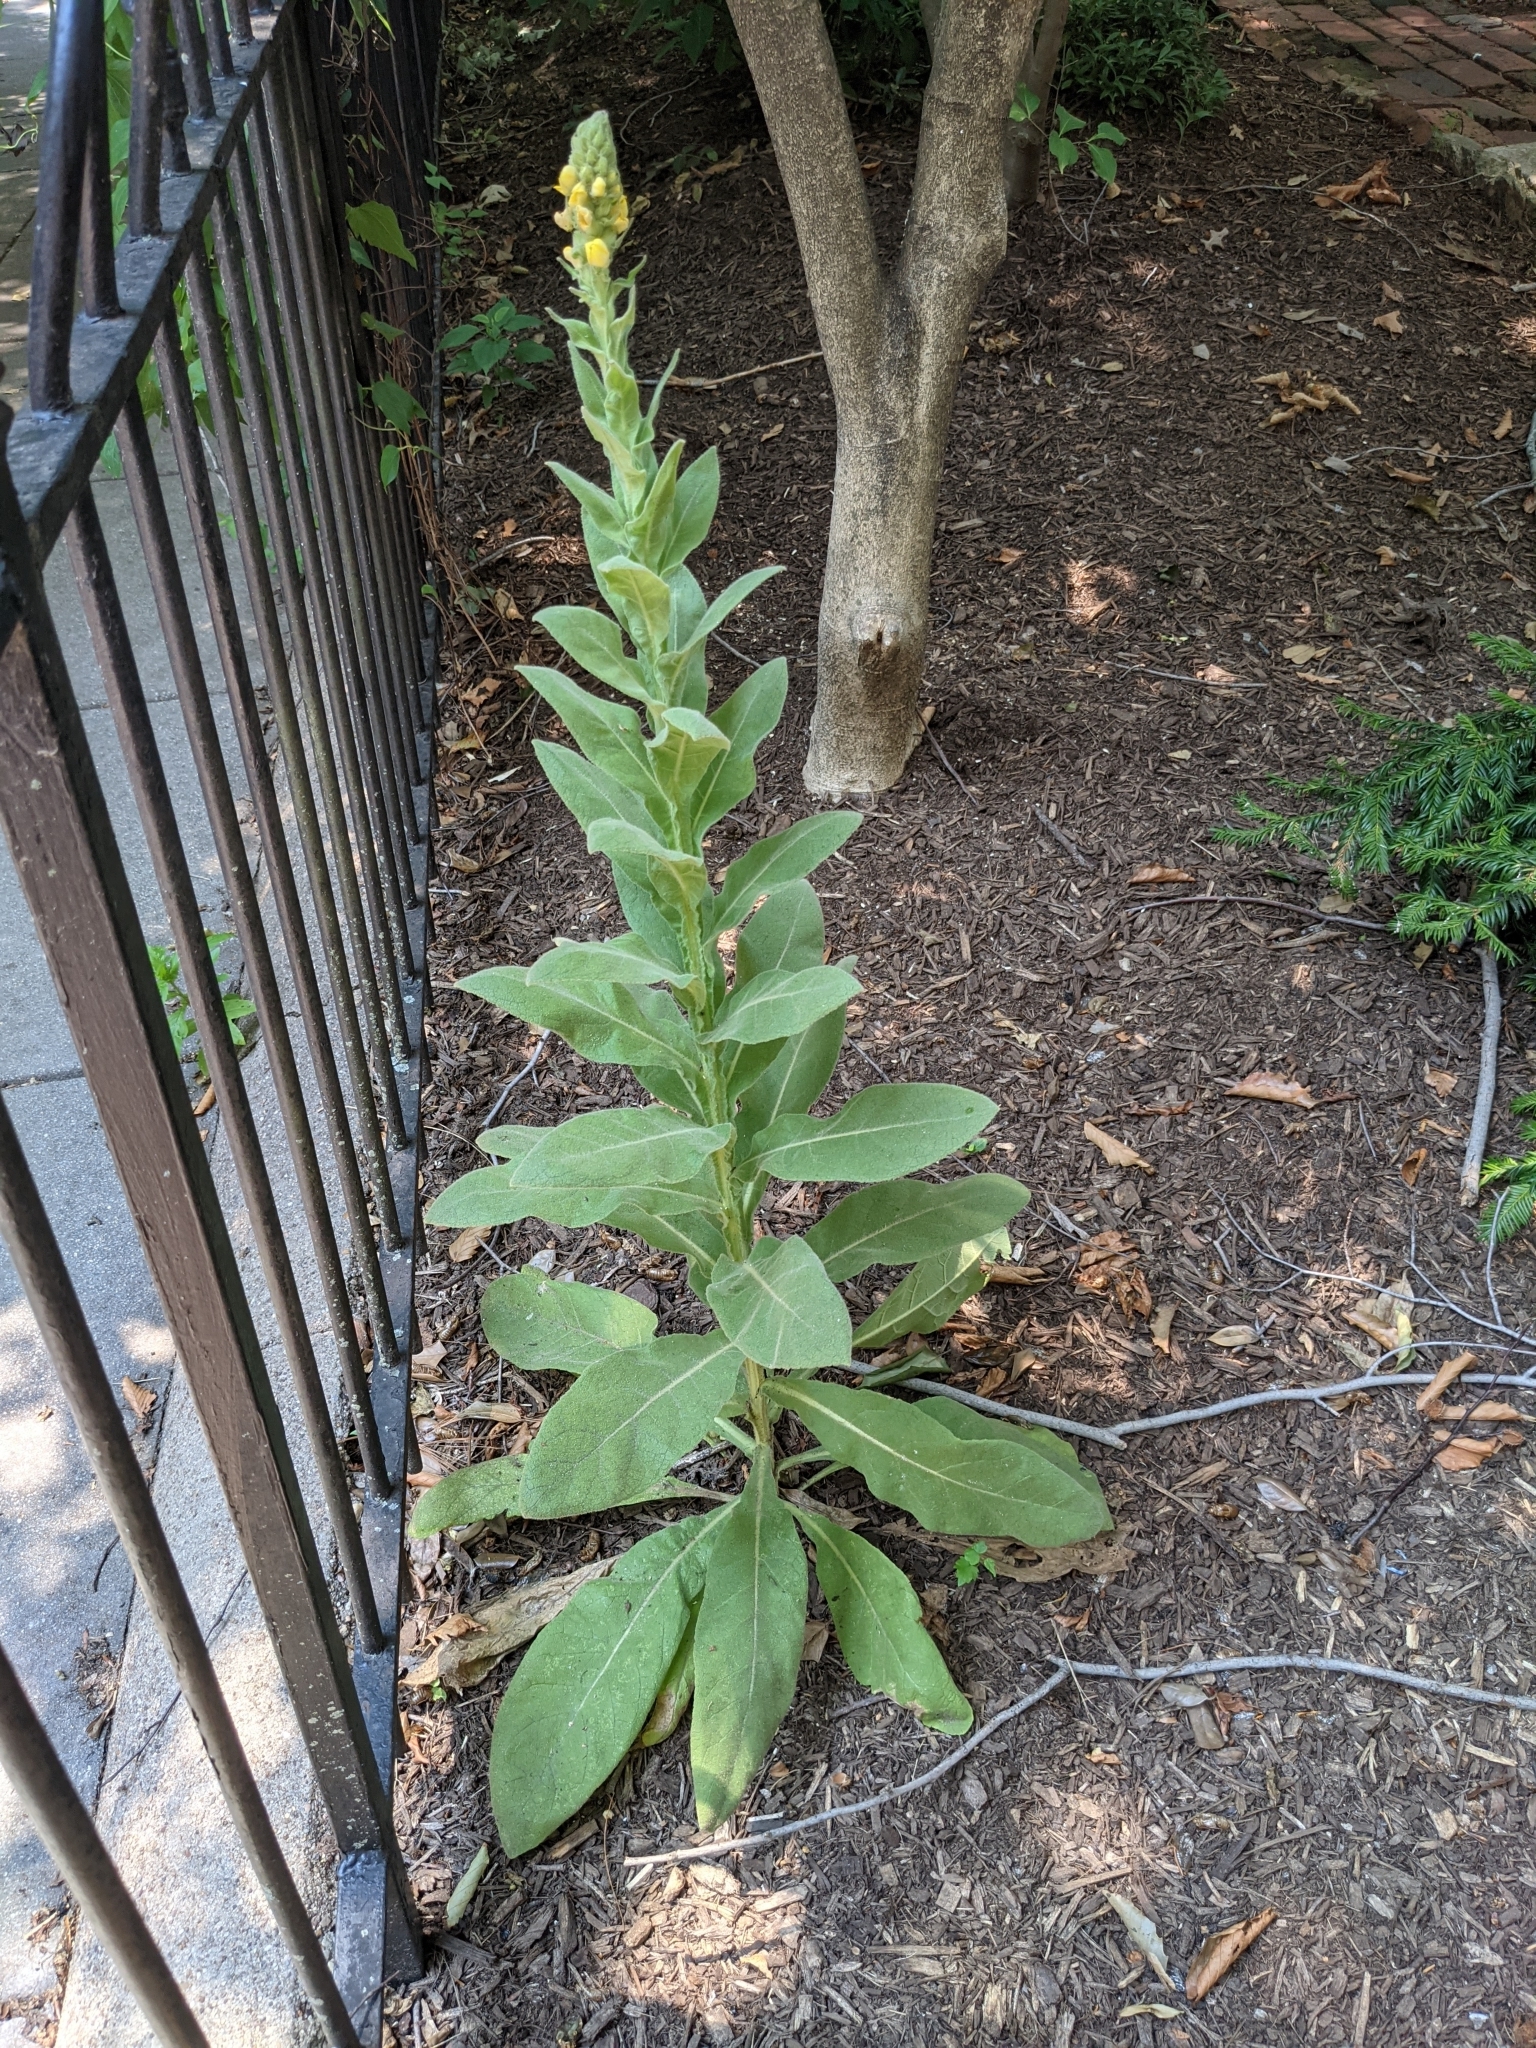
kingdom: Plantae
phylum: Tracheophyta
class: Magnoliopsida
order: Lamiales
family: Scrophulariaceae
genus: Verbascum
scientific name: Verbascum thapsus
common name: Common mullein
